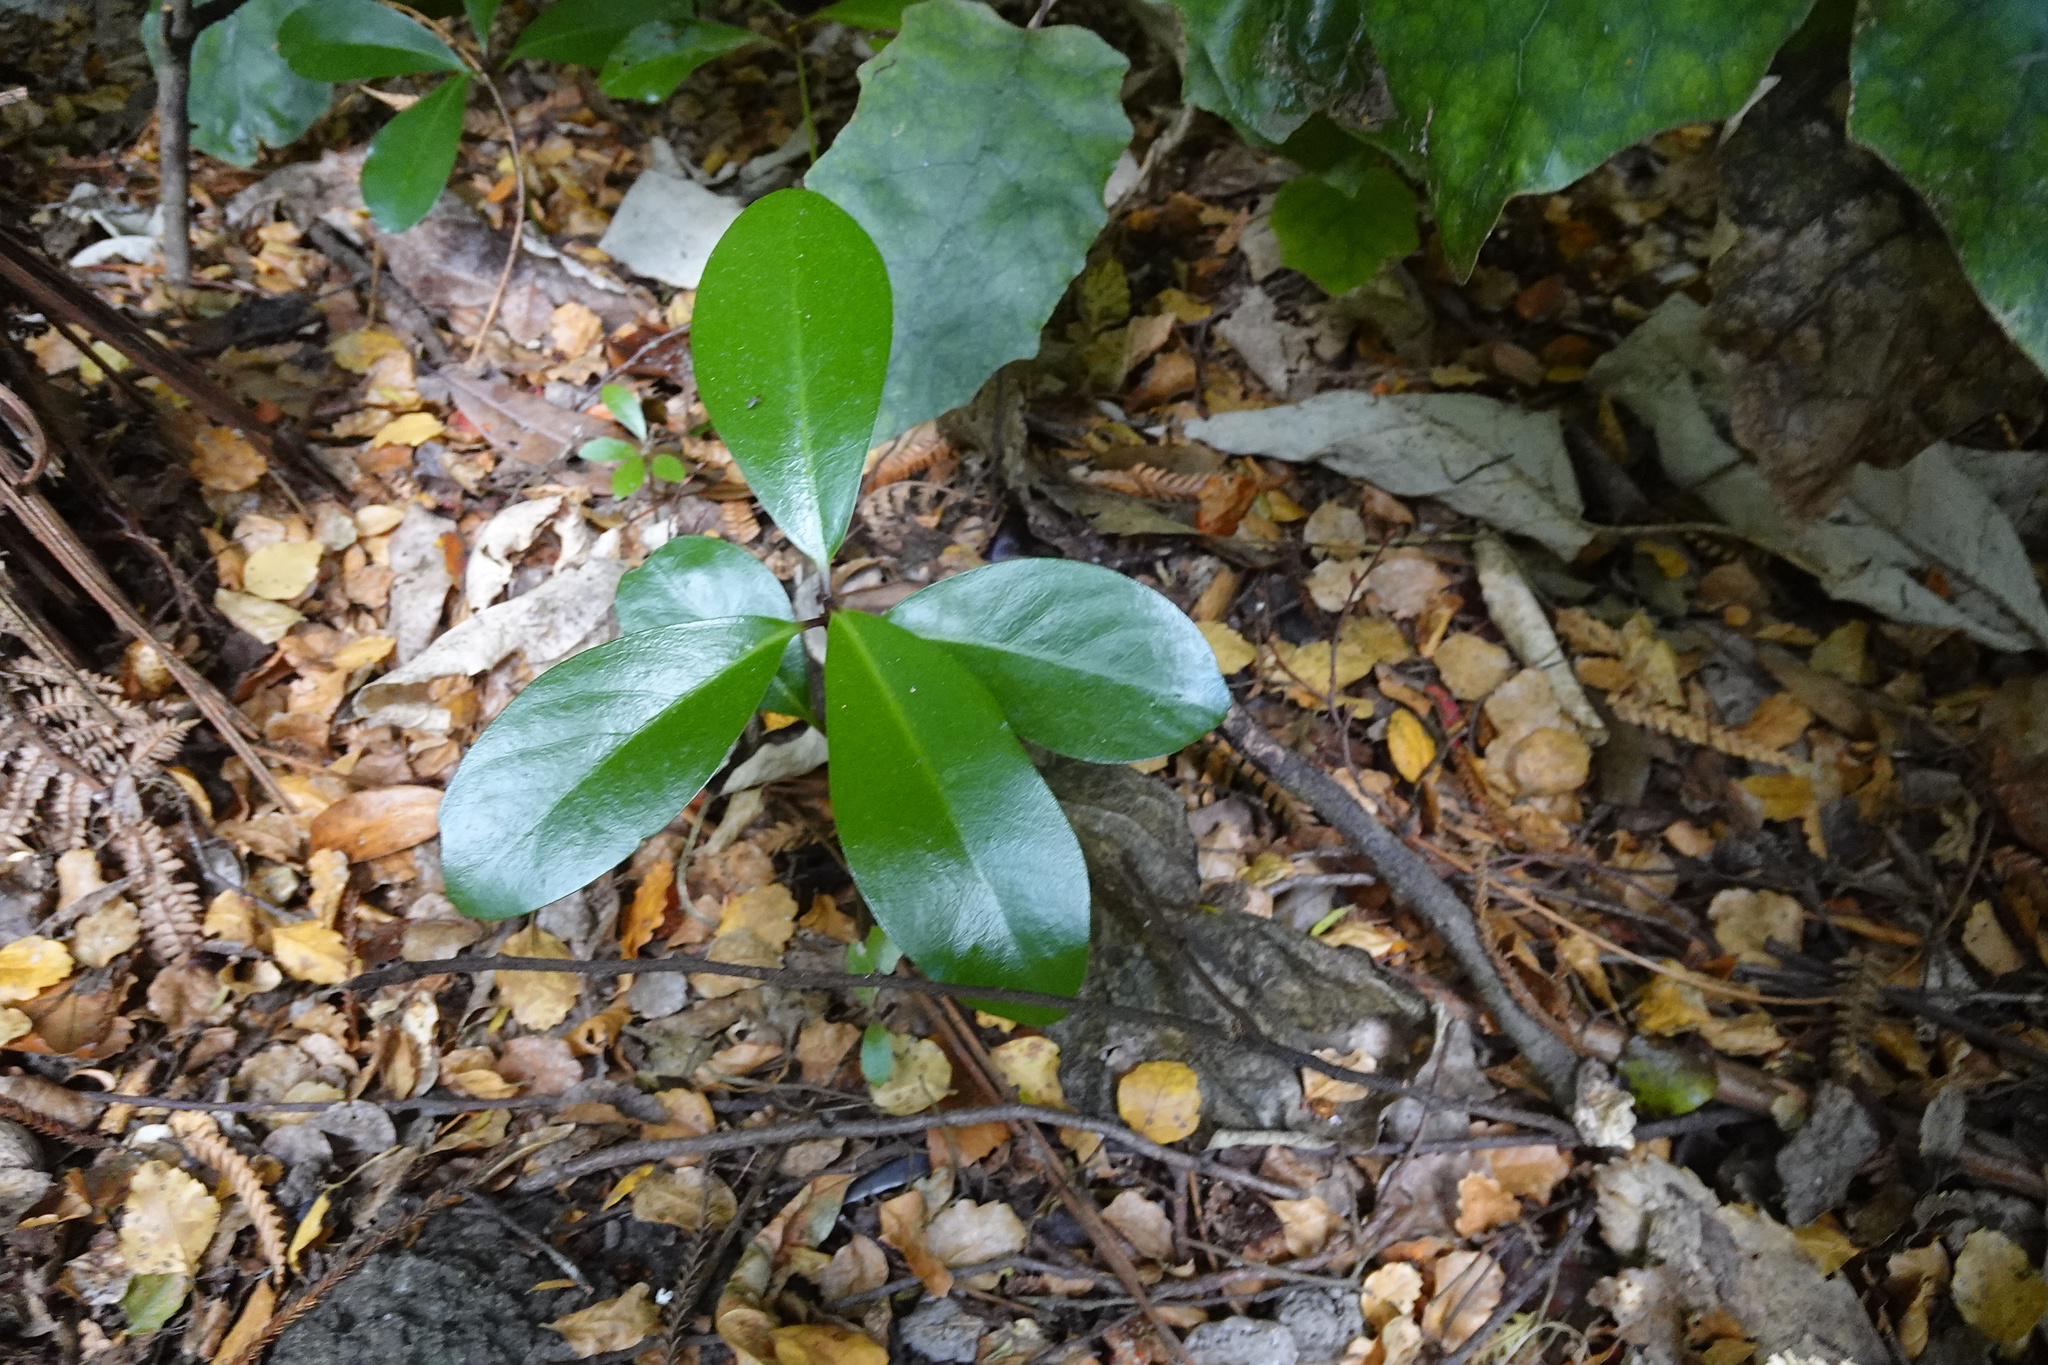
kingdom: Plantae
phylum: Tracheophyta
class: Magnoliopsida
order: Cucurbitales
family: Corynocarpaceae
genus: Corynocarpus
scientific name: Corynocarpus laevigatus
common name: New zealand laurel
